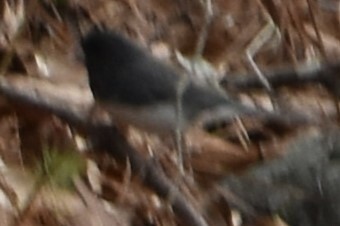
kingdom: Animalia
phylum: Chordata
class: Aves
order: Passeriformes
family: Passerellidae
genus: Junco
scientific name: Junco hyemalis
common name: Dark-eyed junco
